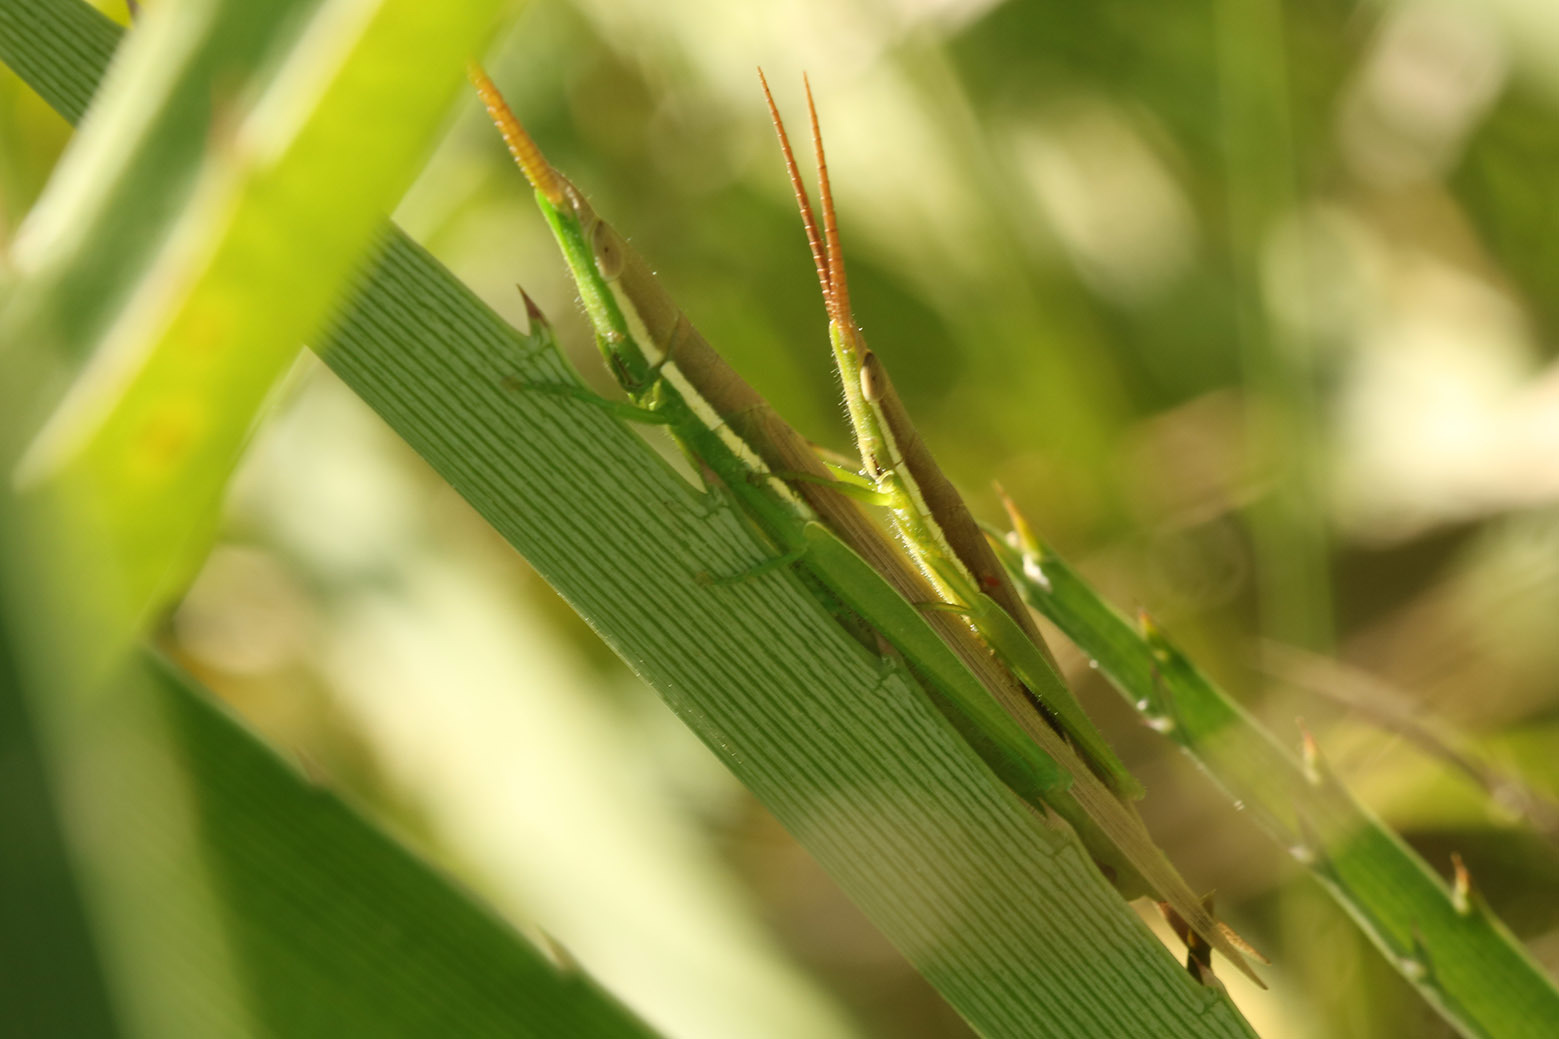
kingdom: Animalia
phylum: Arthropoda
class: Insecta
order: Orthoptera
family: Acrididae
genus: Leptysma
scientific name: Leptysma argentina
